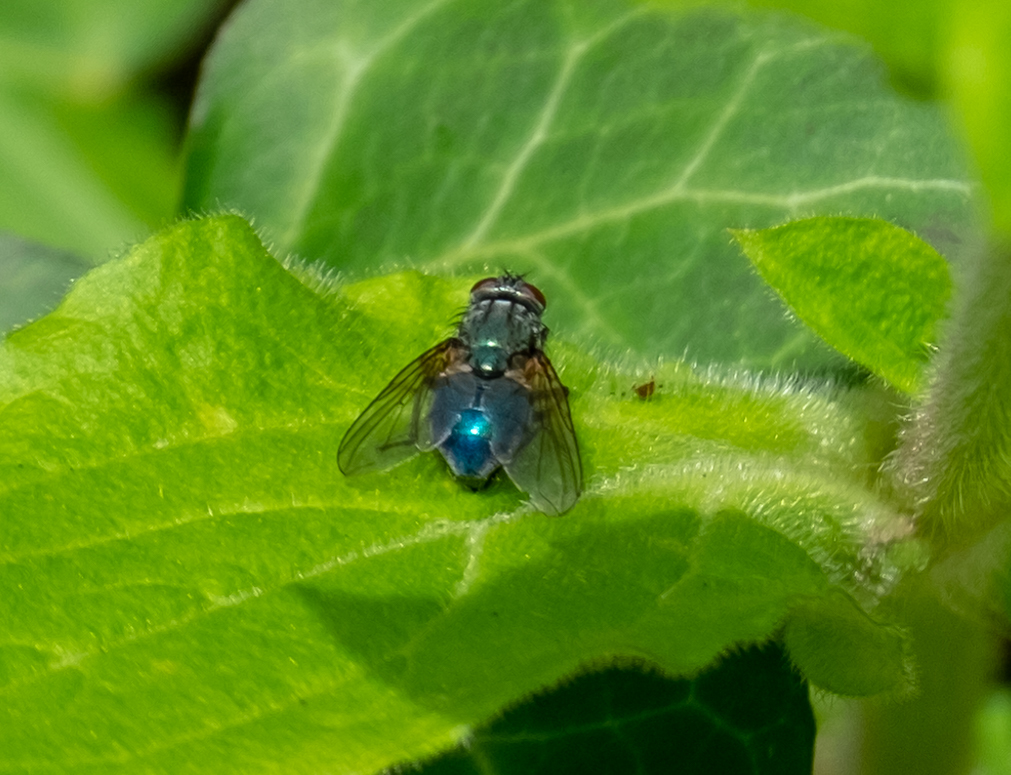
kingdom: Animalia
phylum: Arthropoda
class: Insecta
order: Diptera
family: Muscidae
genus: Dasyphora
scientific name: Dasyphora cyanella
